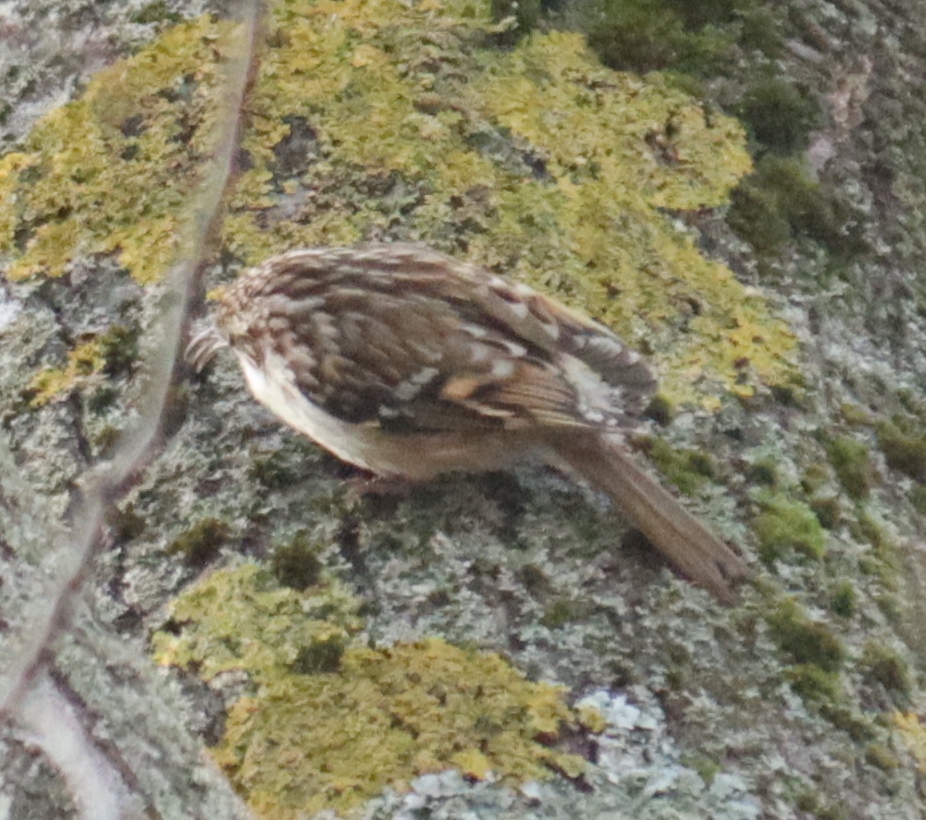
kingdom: Animalia
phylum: Chordata
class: Aves
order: Passeriformes
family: Certhiidae
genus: Certhia
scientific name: Certhia brachydactyla
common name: Short-toed treecreeper
